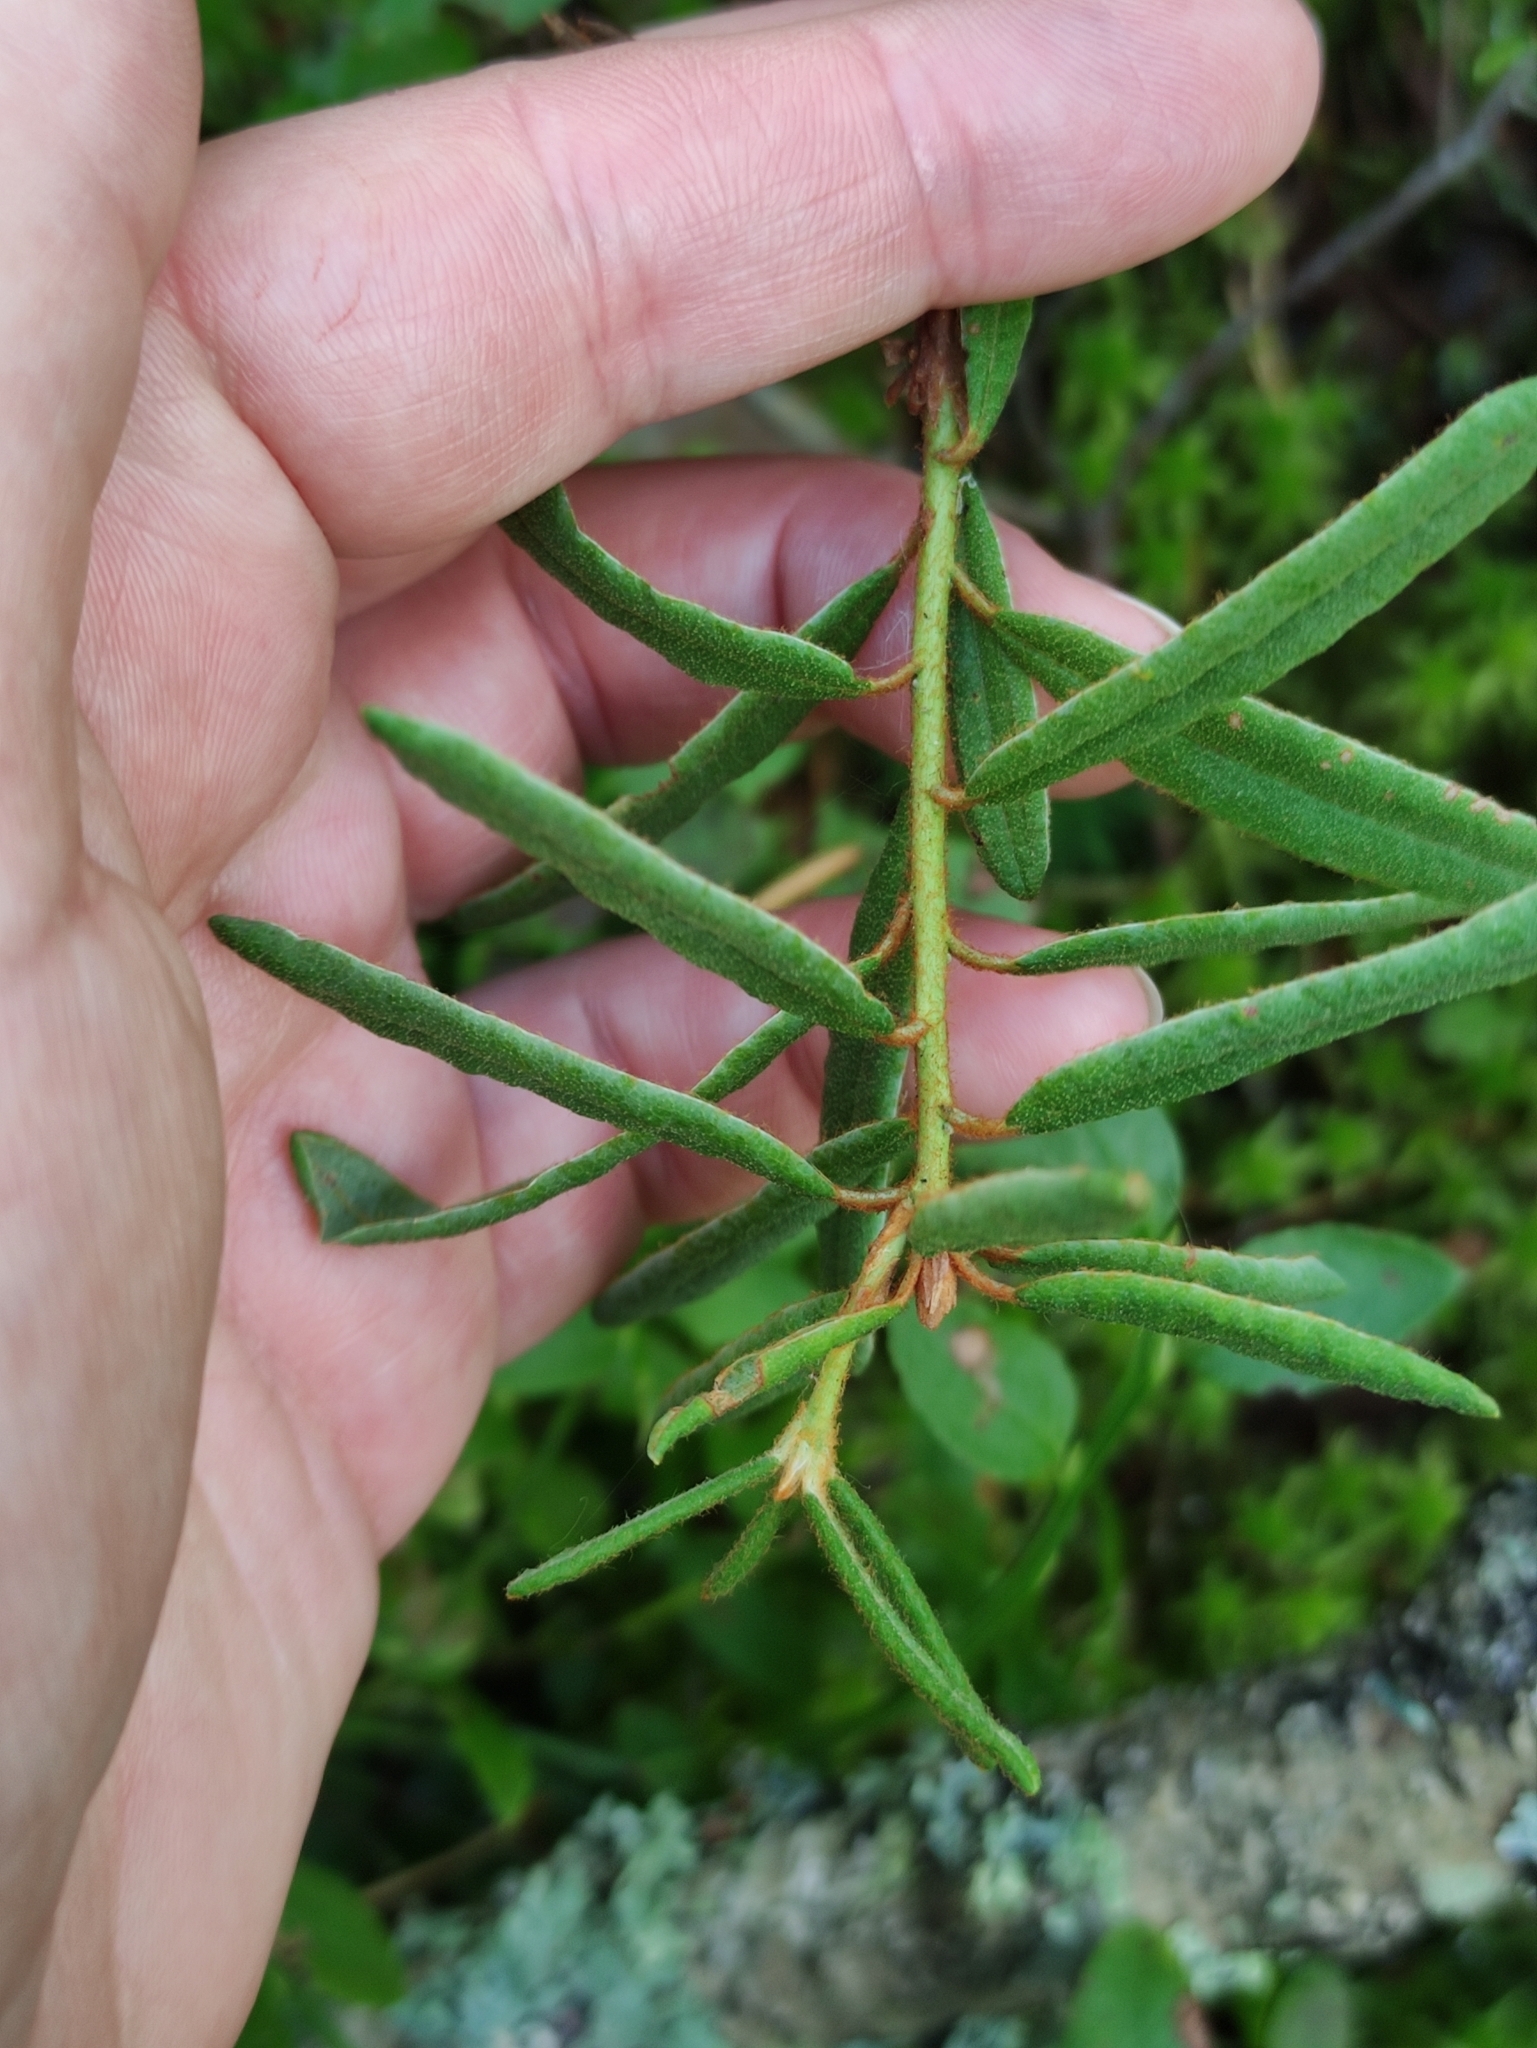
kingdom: Plantae
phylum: Tracheophyta
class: Magnoliopsida
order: Ericales
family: Ericaceae
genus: Rhododendron
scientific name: Rhododendron tomentosum
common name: Marsh labrador tea
